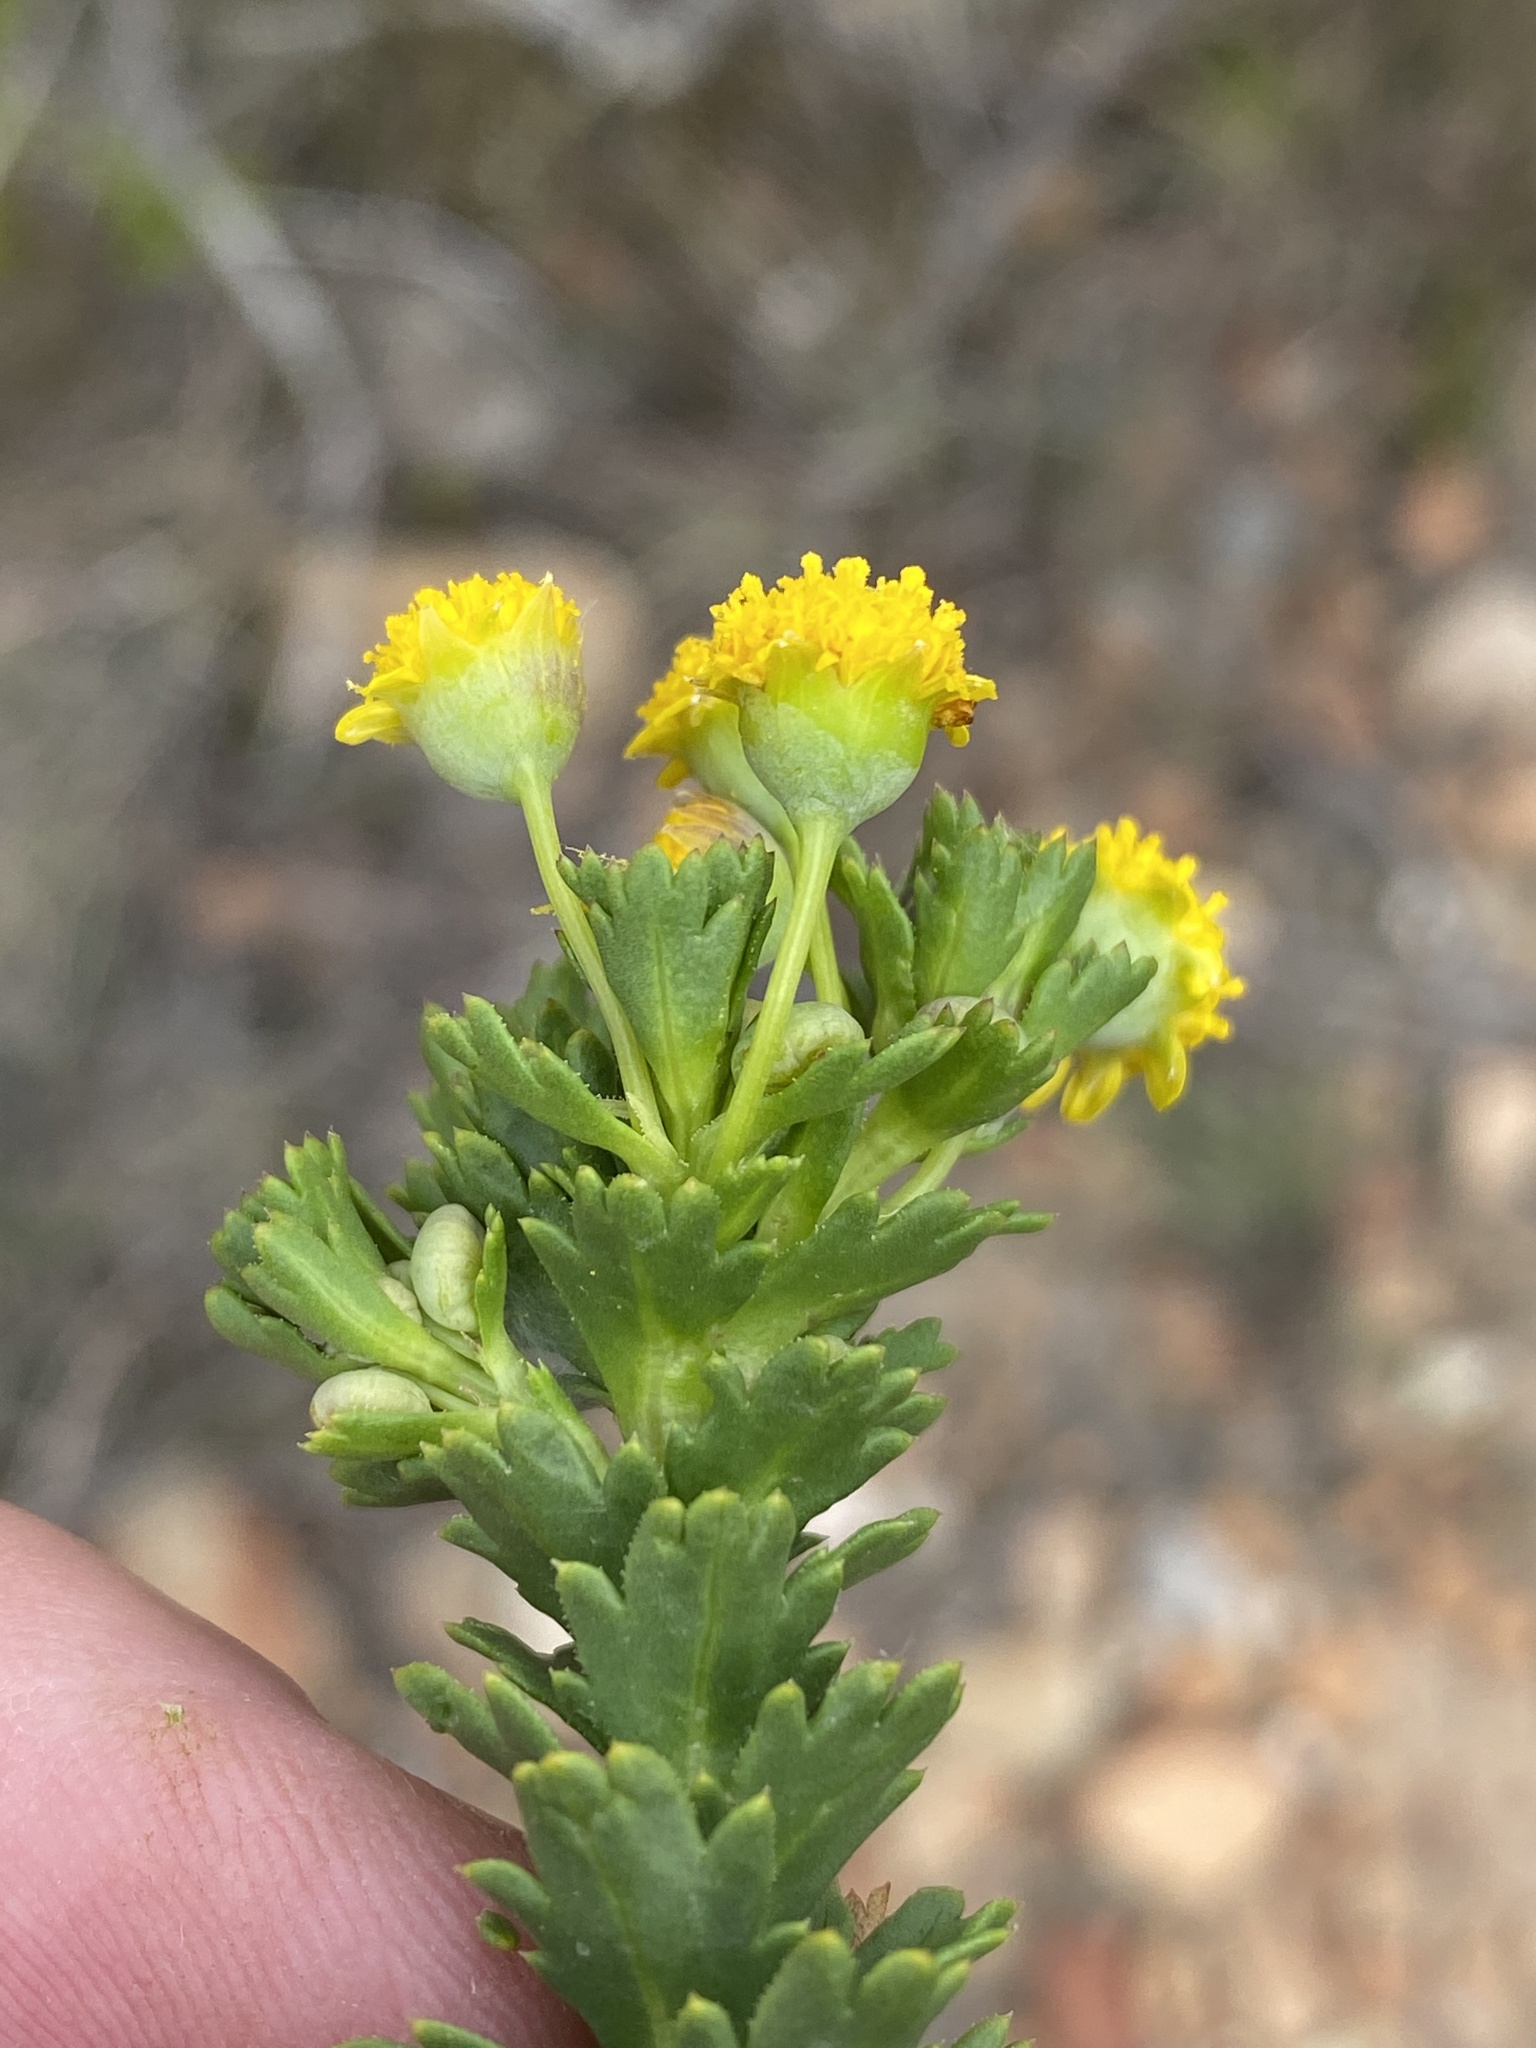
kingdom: Plantae
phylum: Tracheophyta
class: Magnoliopsida
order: Asterales
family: Asteraceae
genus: Euryops
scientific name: Euryops algoensis
